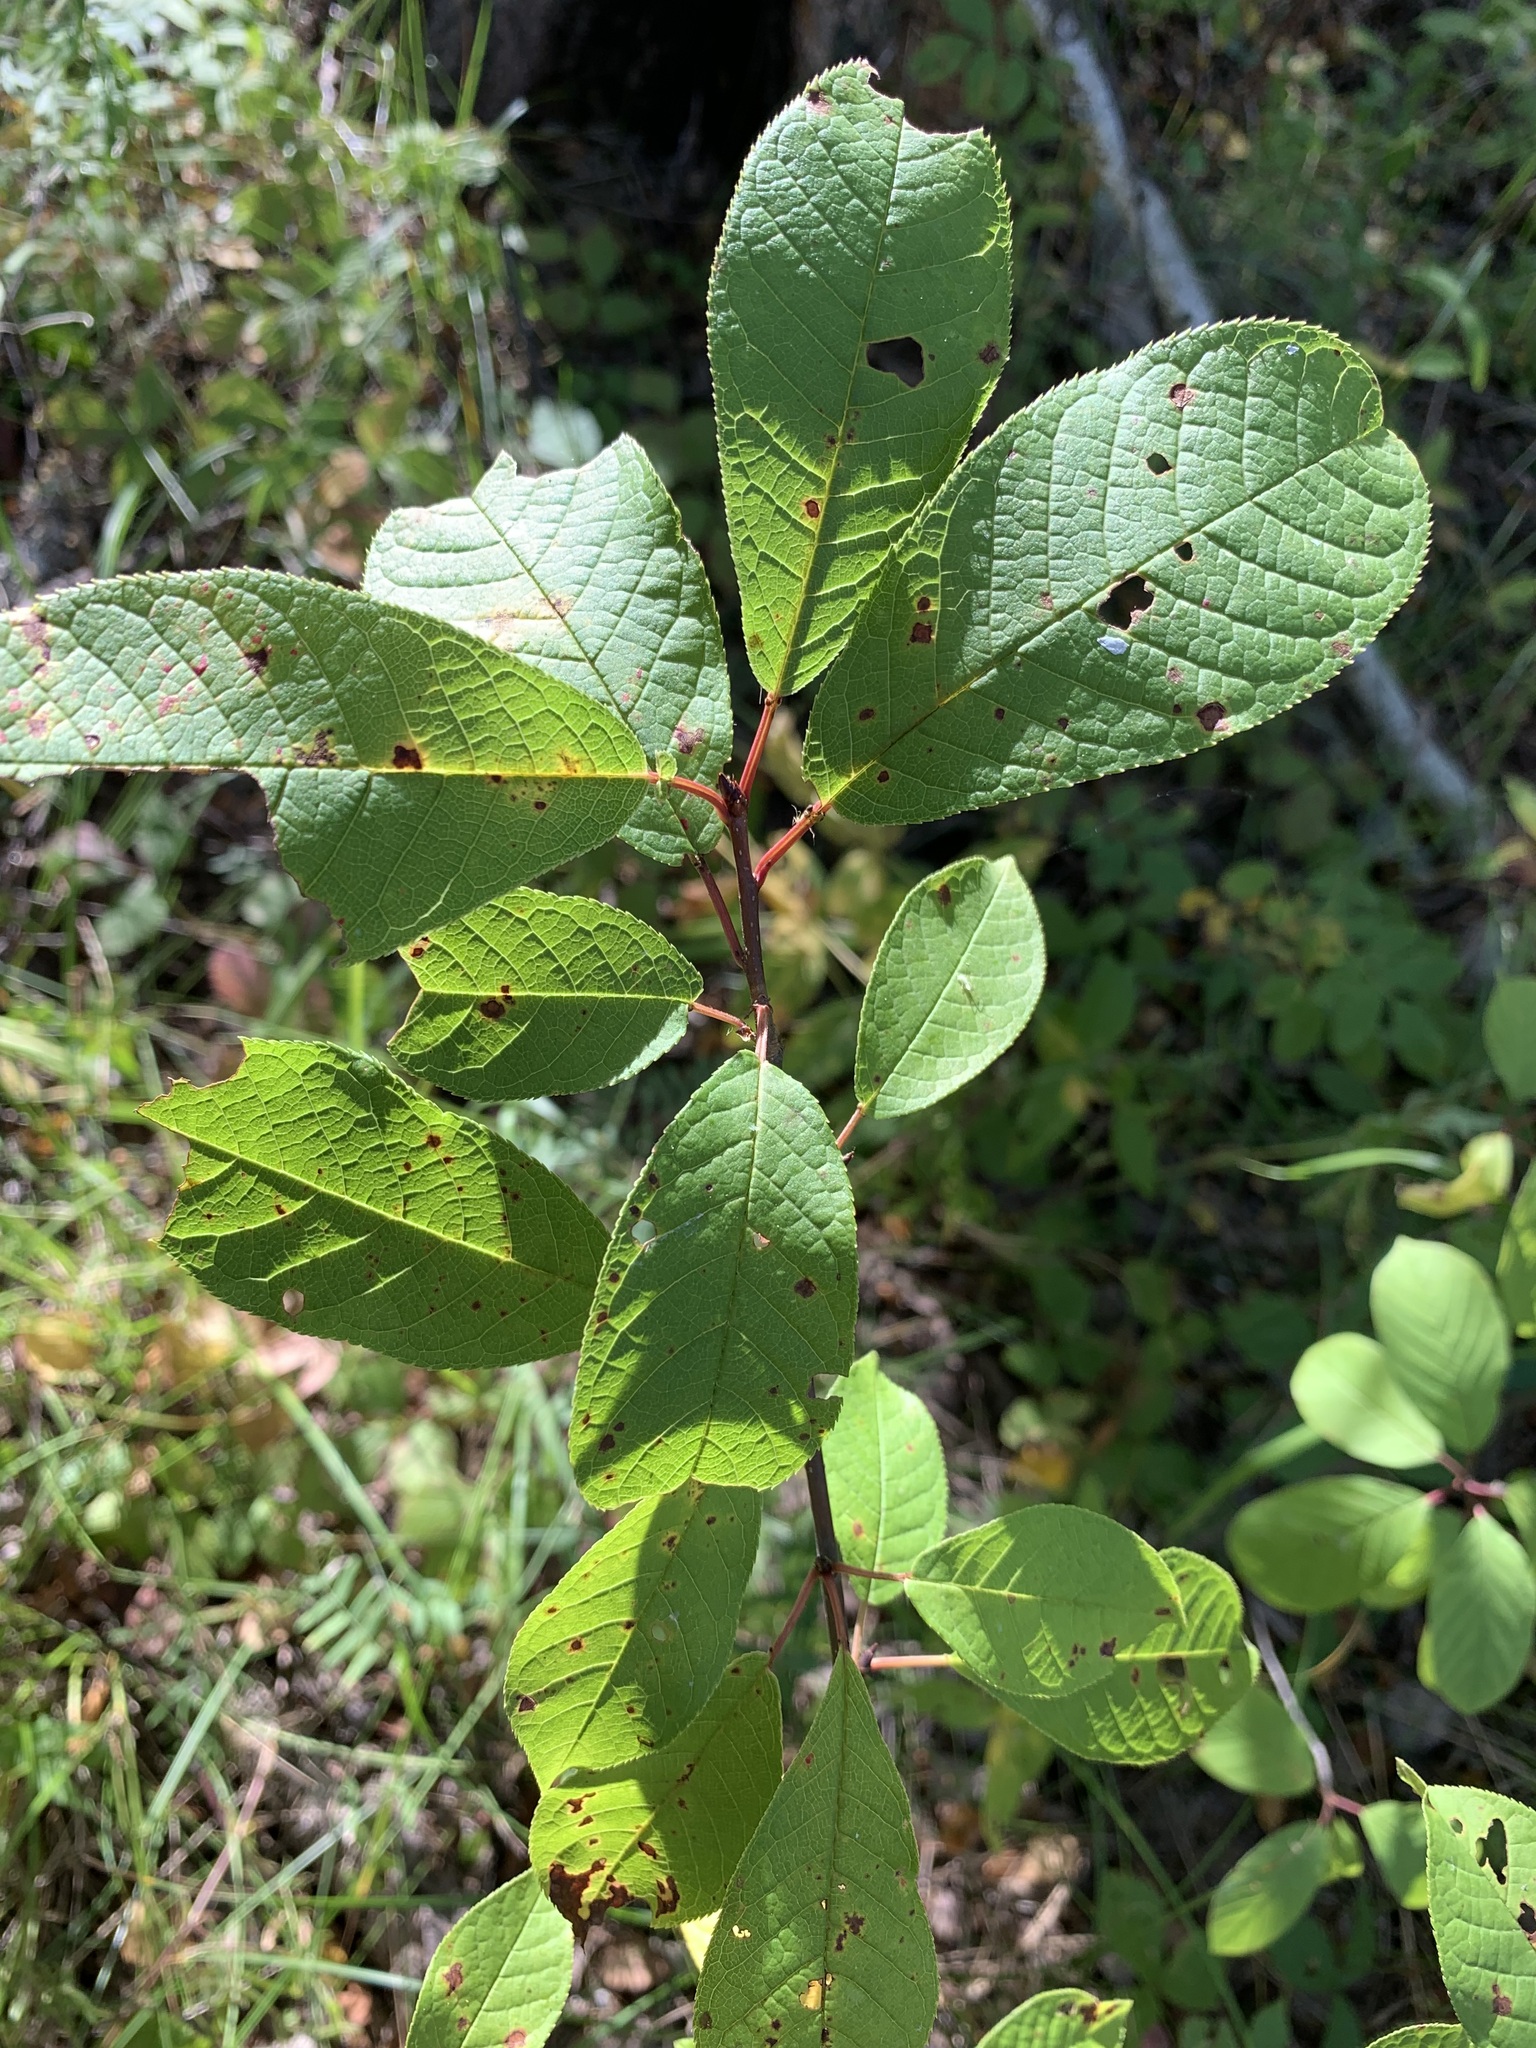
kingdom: Plantae
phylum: Tracheophyta
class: Magnoliopsida
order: Rosales
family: Rosaceae
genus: Prunus
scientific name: Prunus padus
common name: Bird cherry
